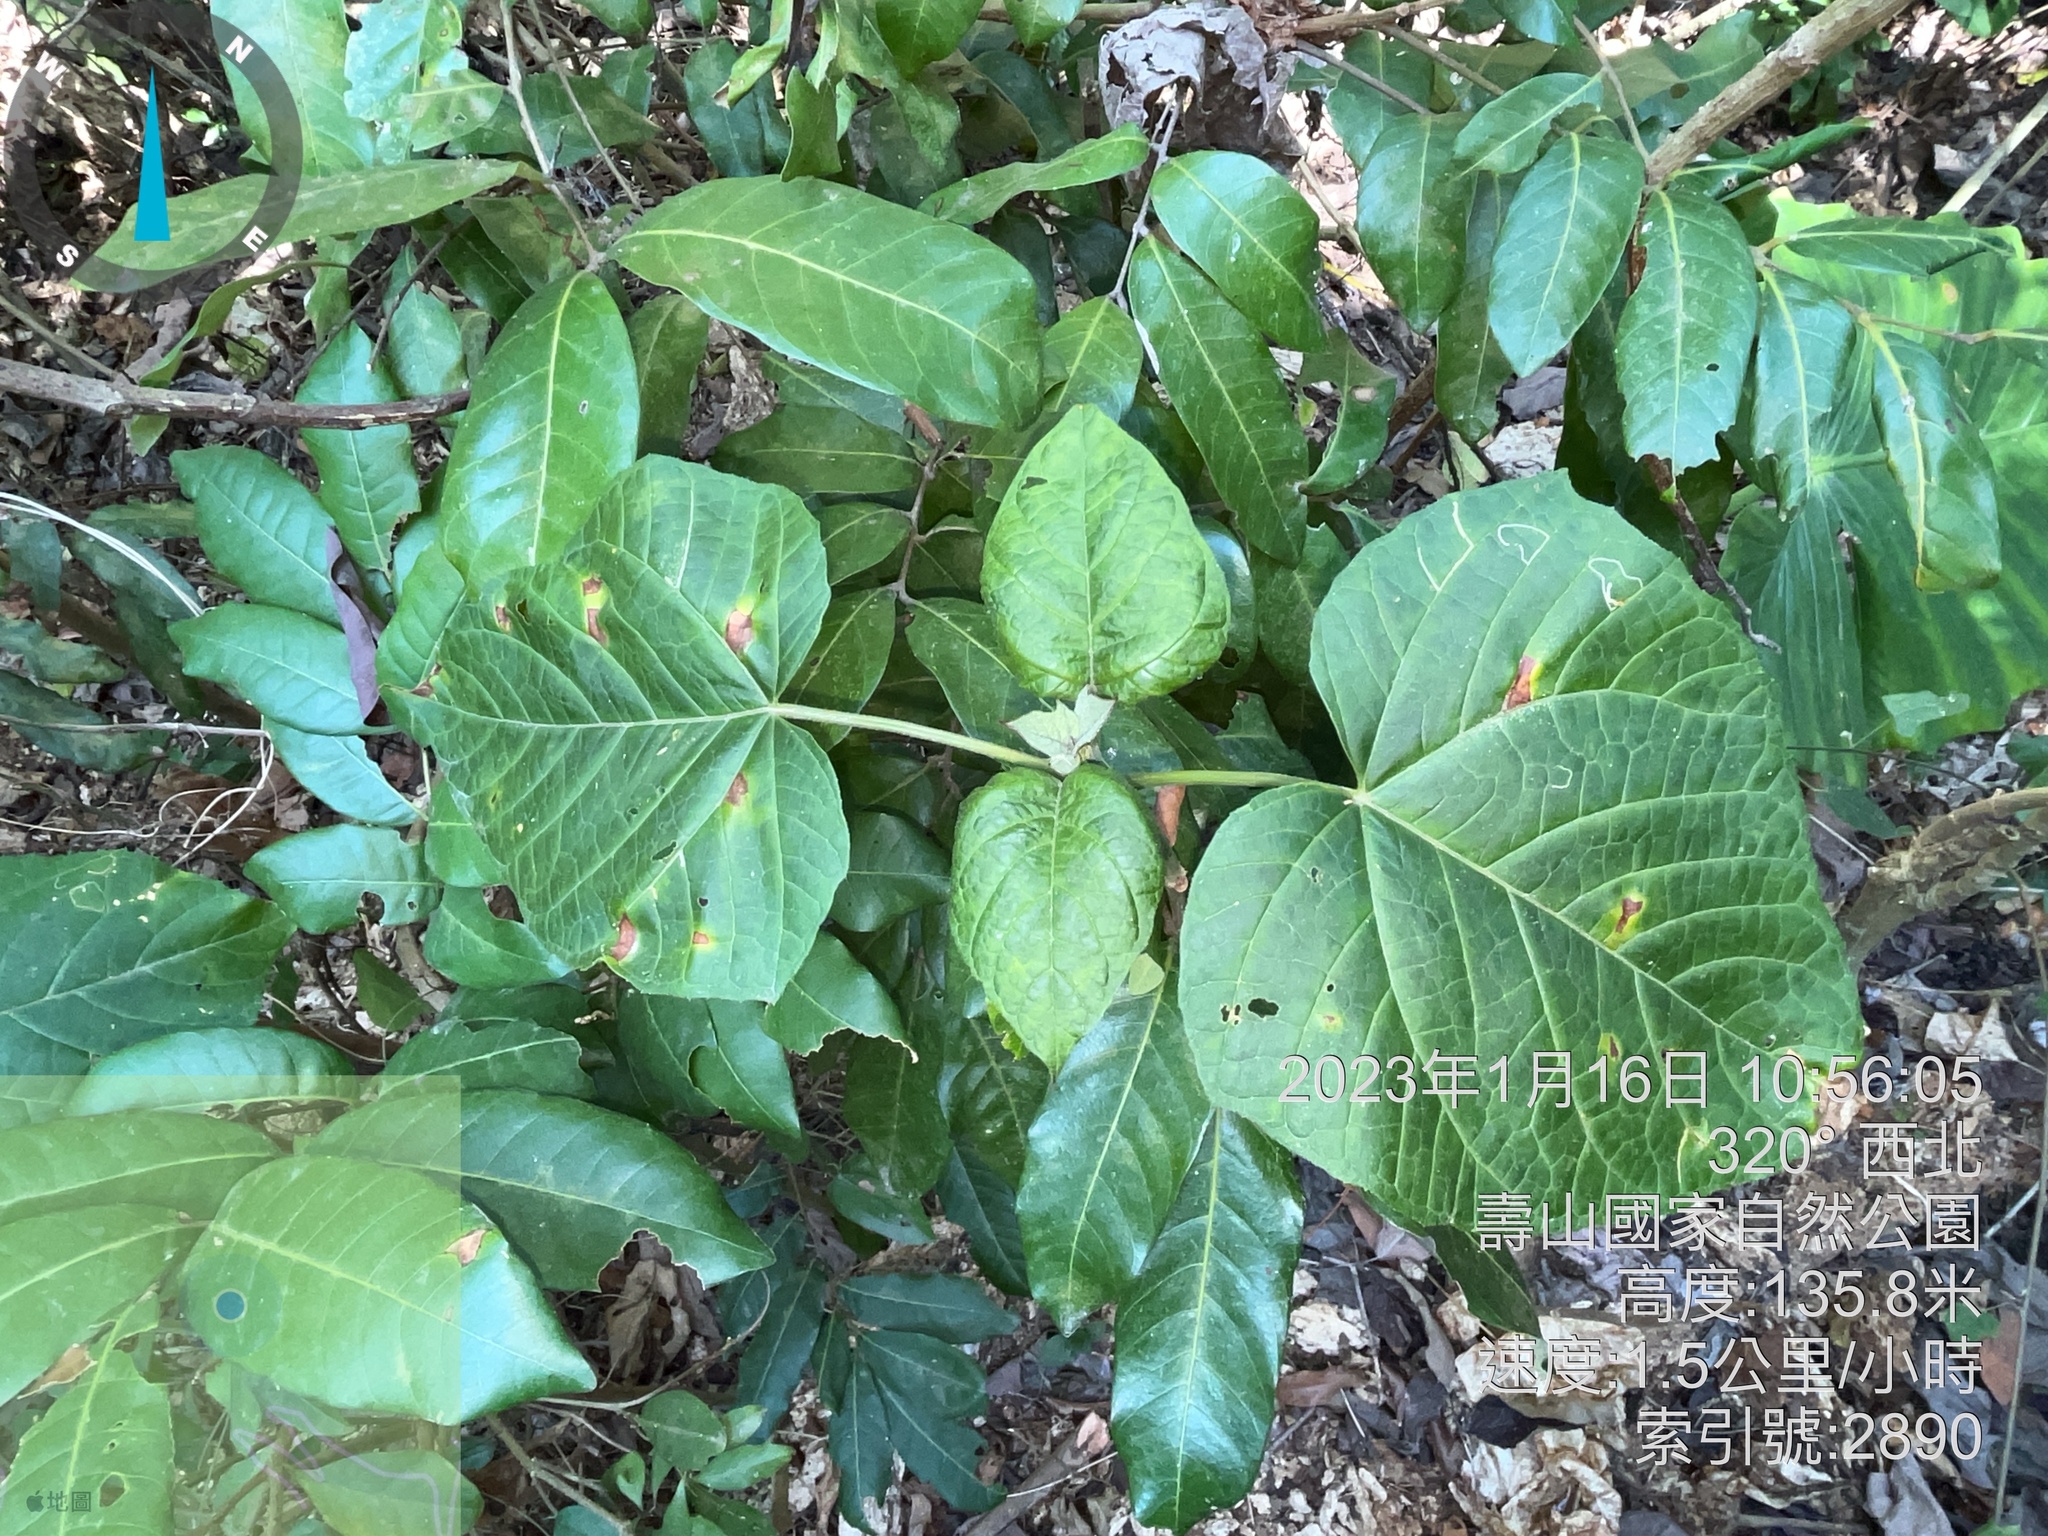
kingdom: Plantae
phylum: Tracheophyta
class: Magnoliopsida
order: Lamiales
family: Lamiaceae
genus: Clerodendrum
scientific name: Clerodendrum japonicum
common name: Japanese glorybower
